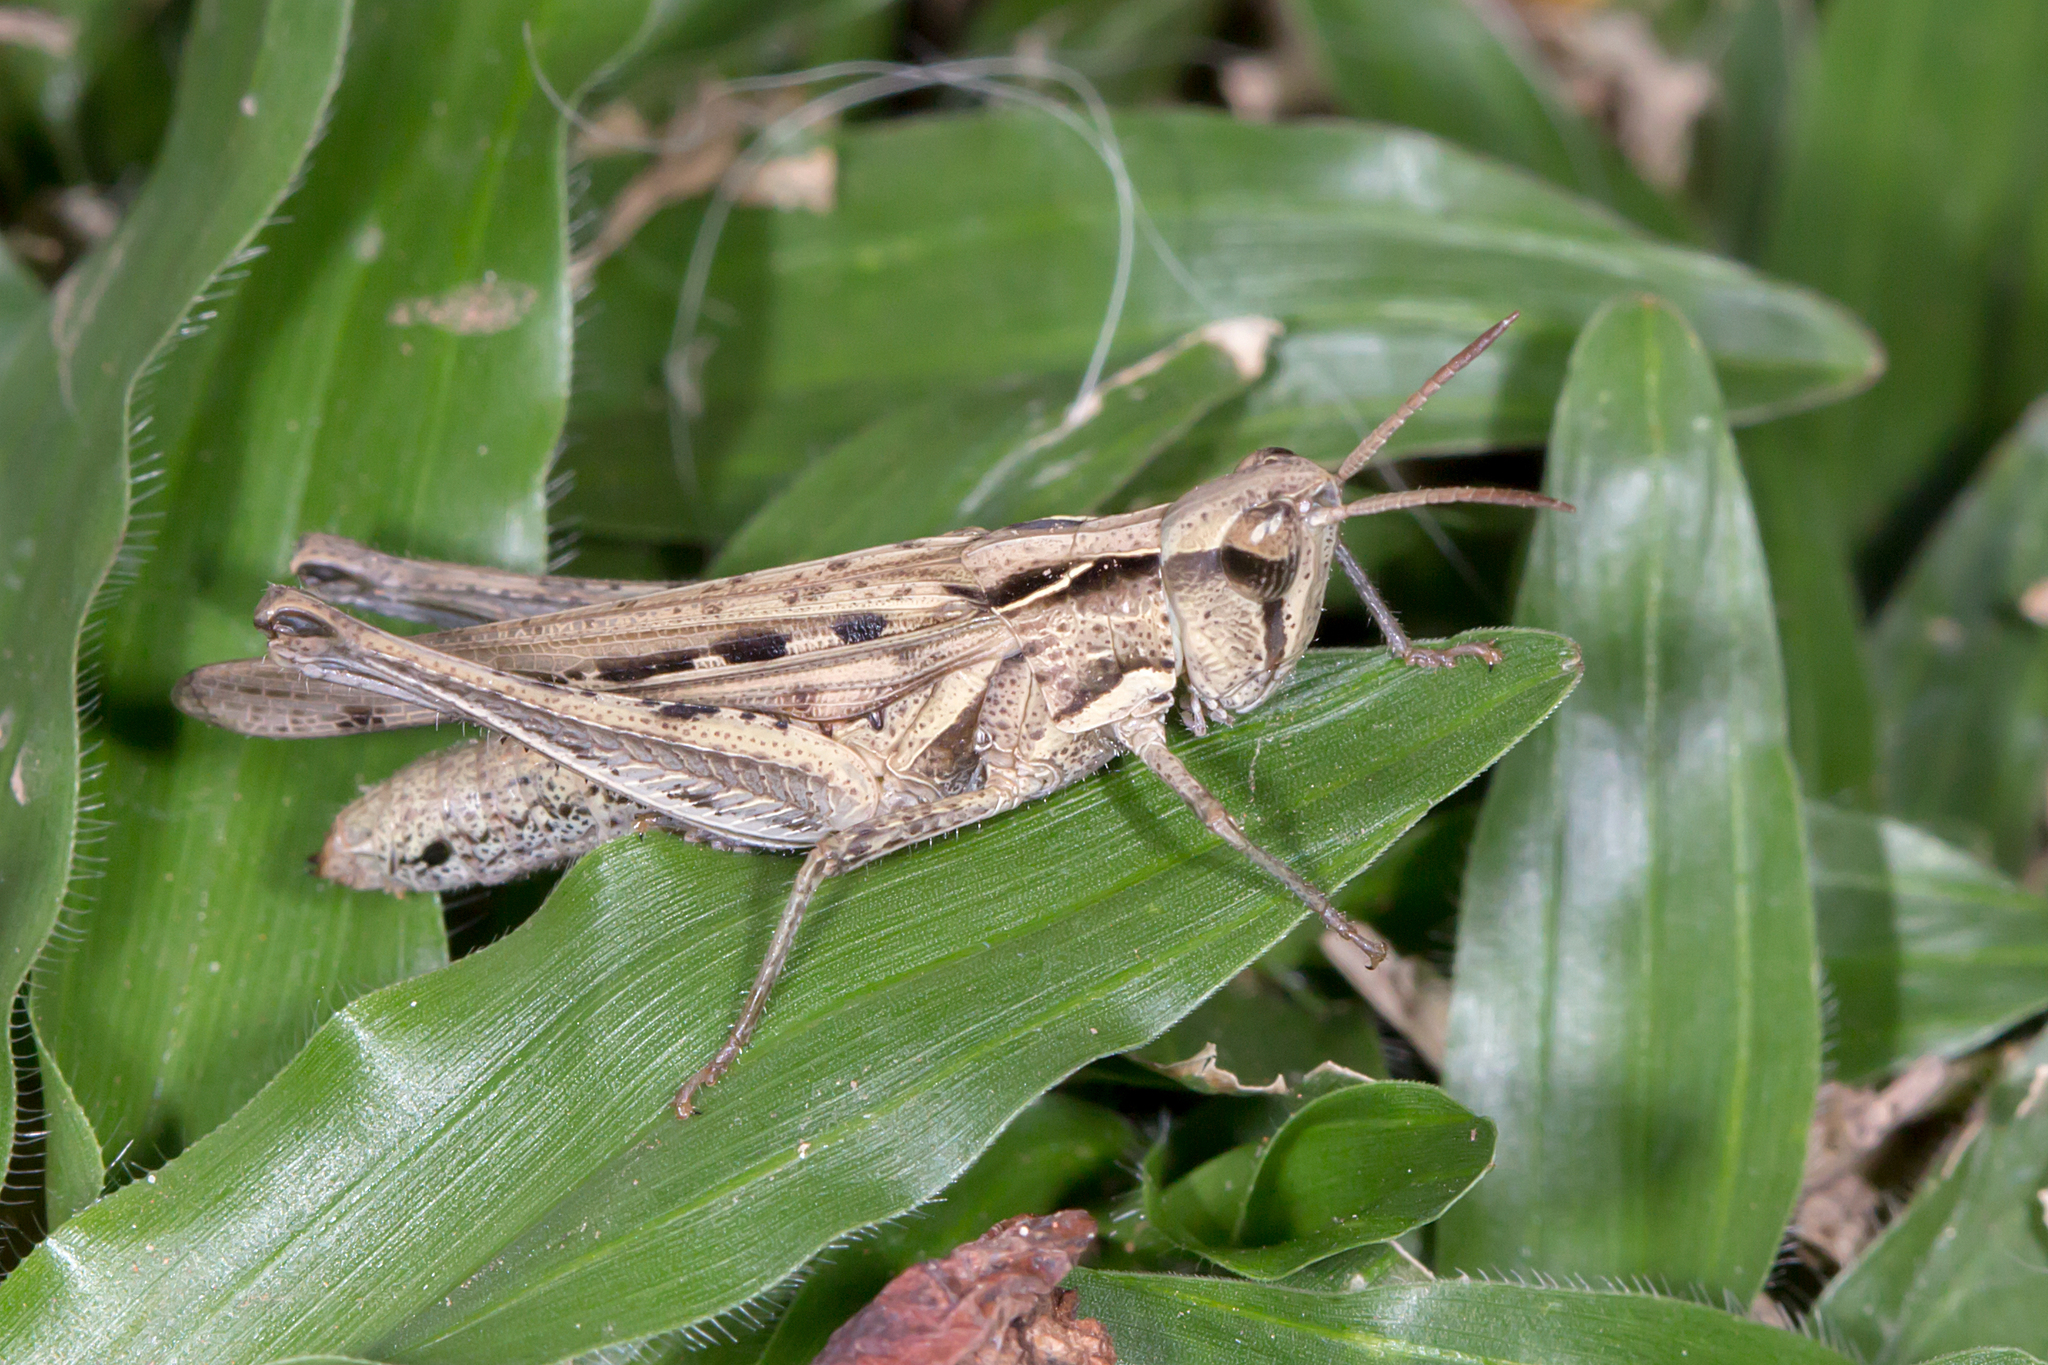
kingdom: Animalia
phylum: Arthropoda
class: Insecta
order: Orthoptera
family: Acrididae
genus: Calephorops
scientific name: Calephorops viridis
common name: Calephorops
